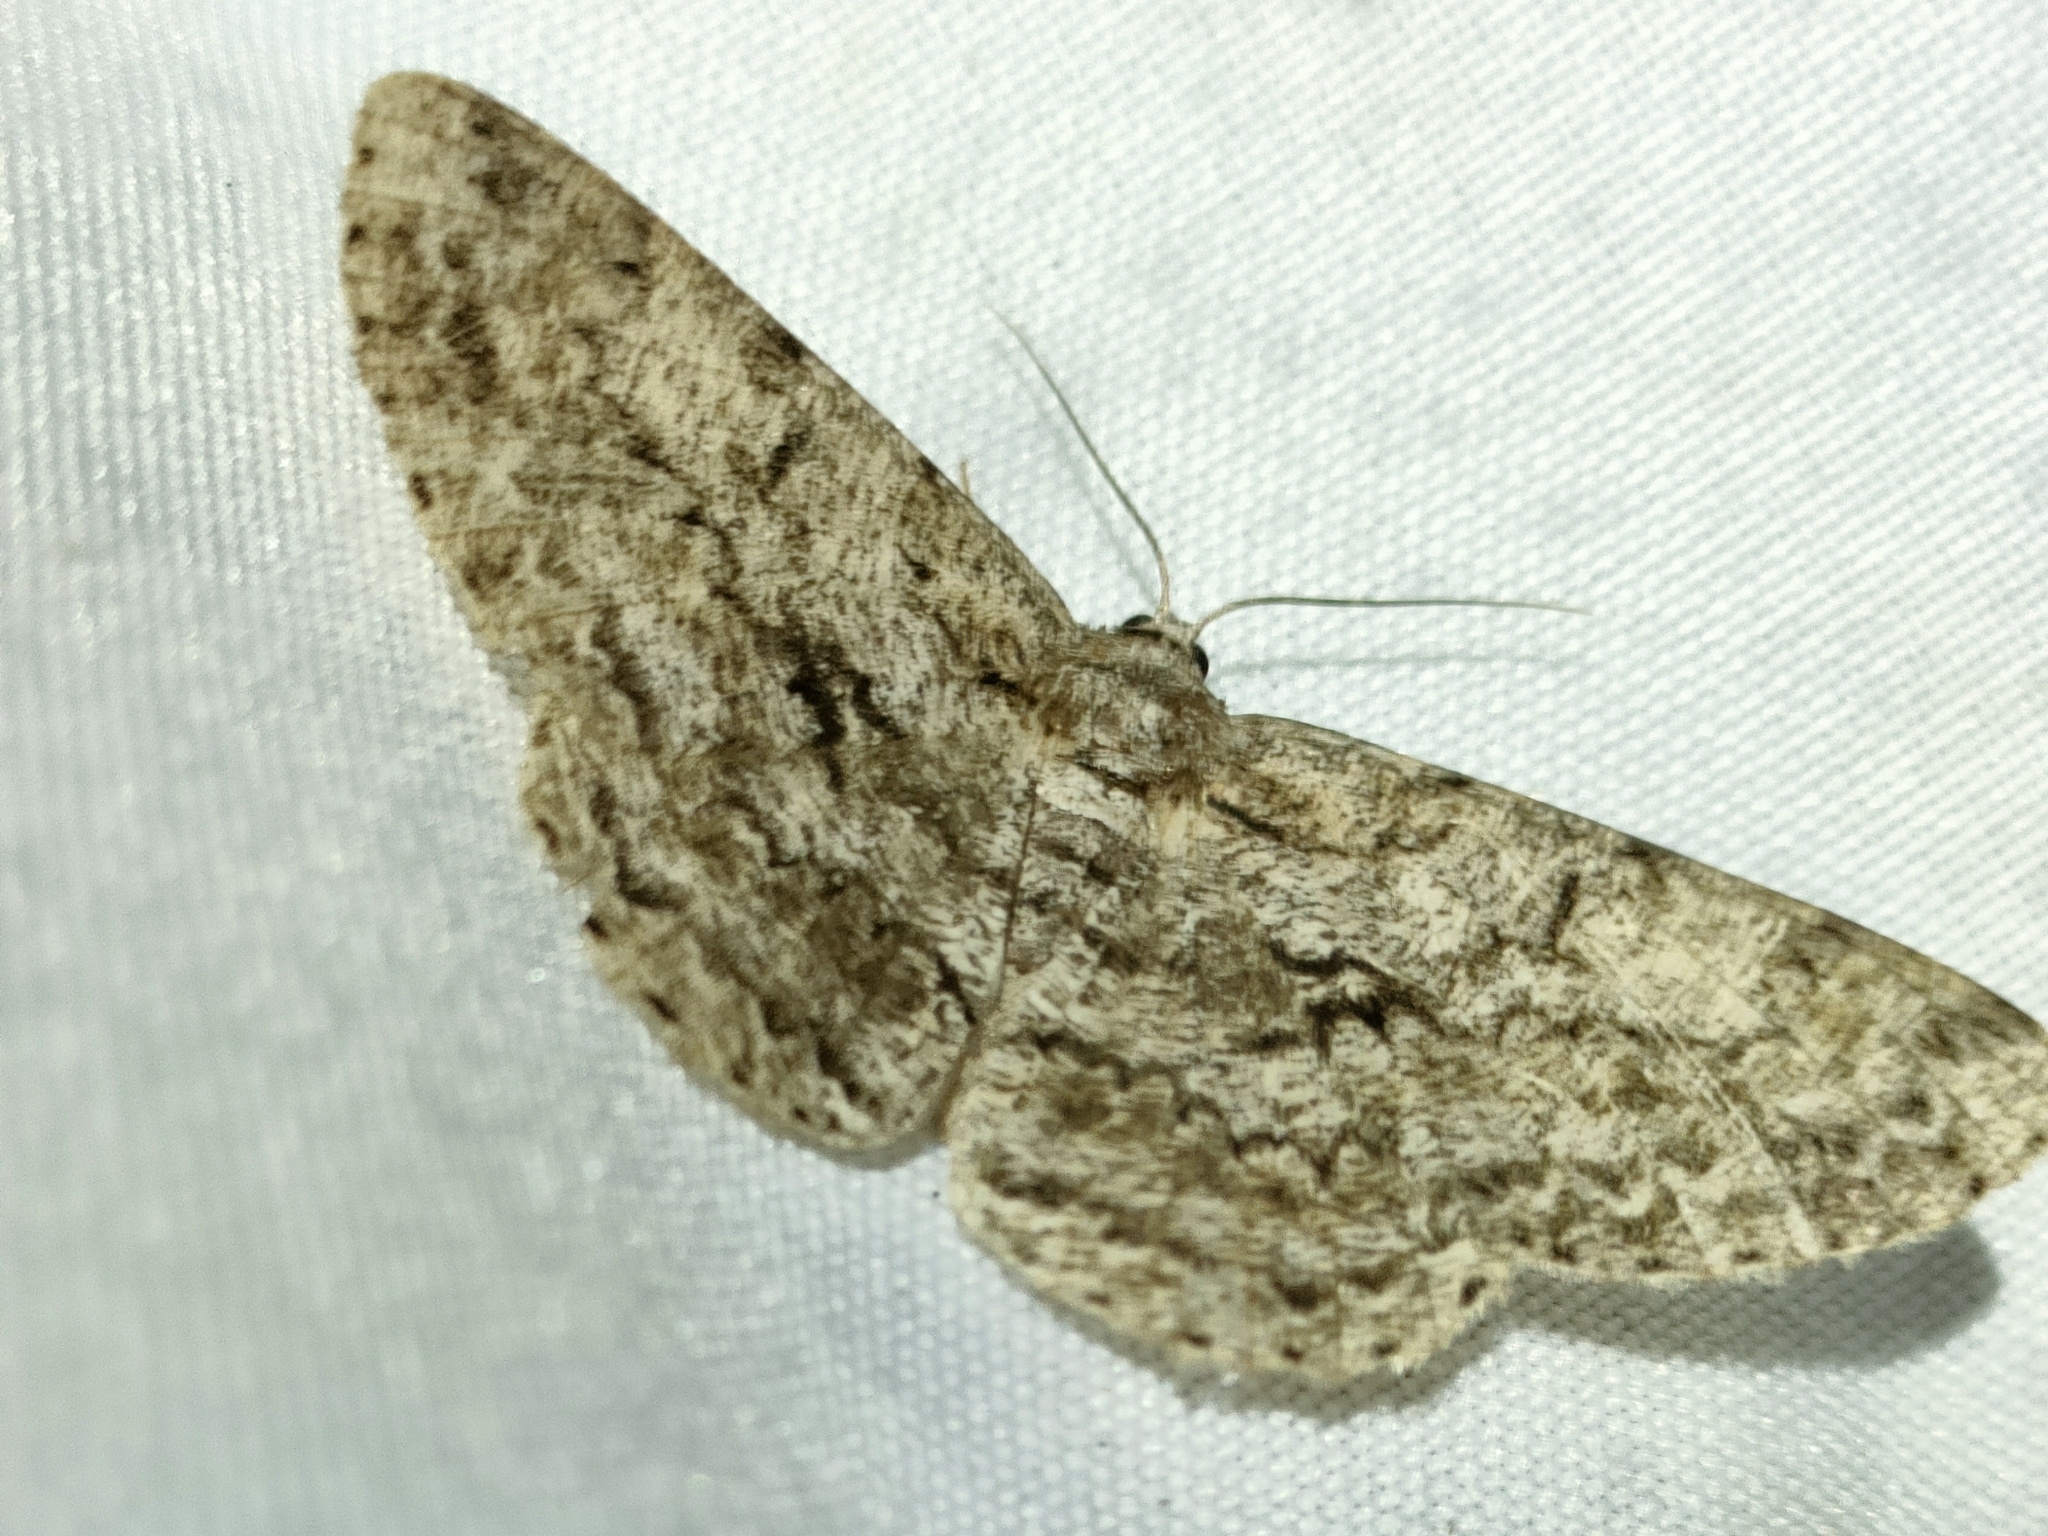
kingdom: Animalia
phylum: Arthropoda
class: Insecta
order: Lepidoptera
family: Geometridae
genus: Hypomecis
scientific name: Hypomecis roboraria
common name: Great oak beauty
